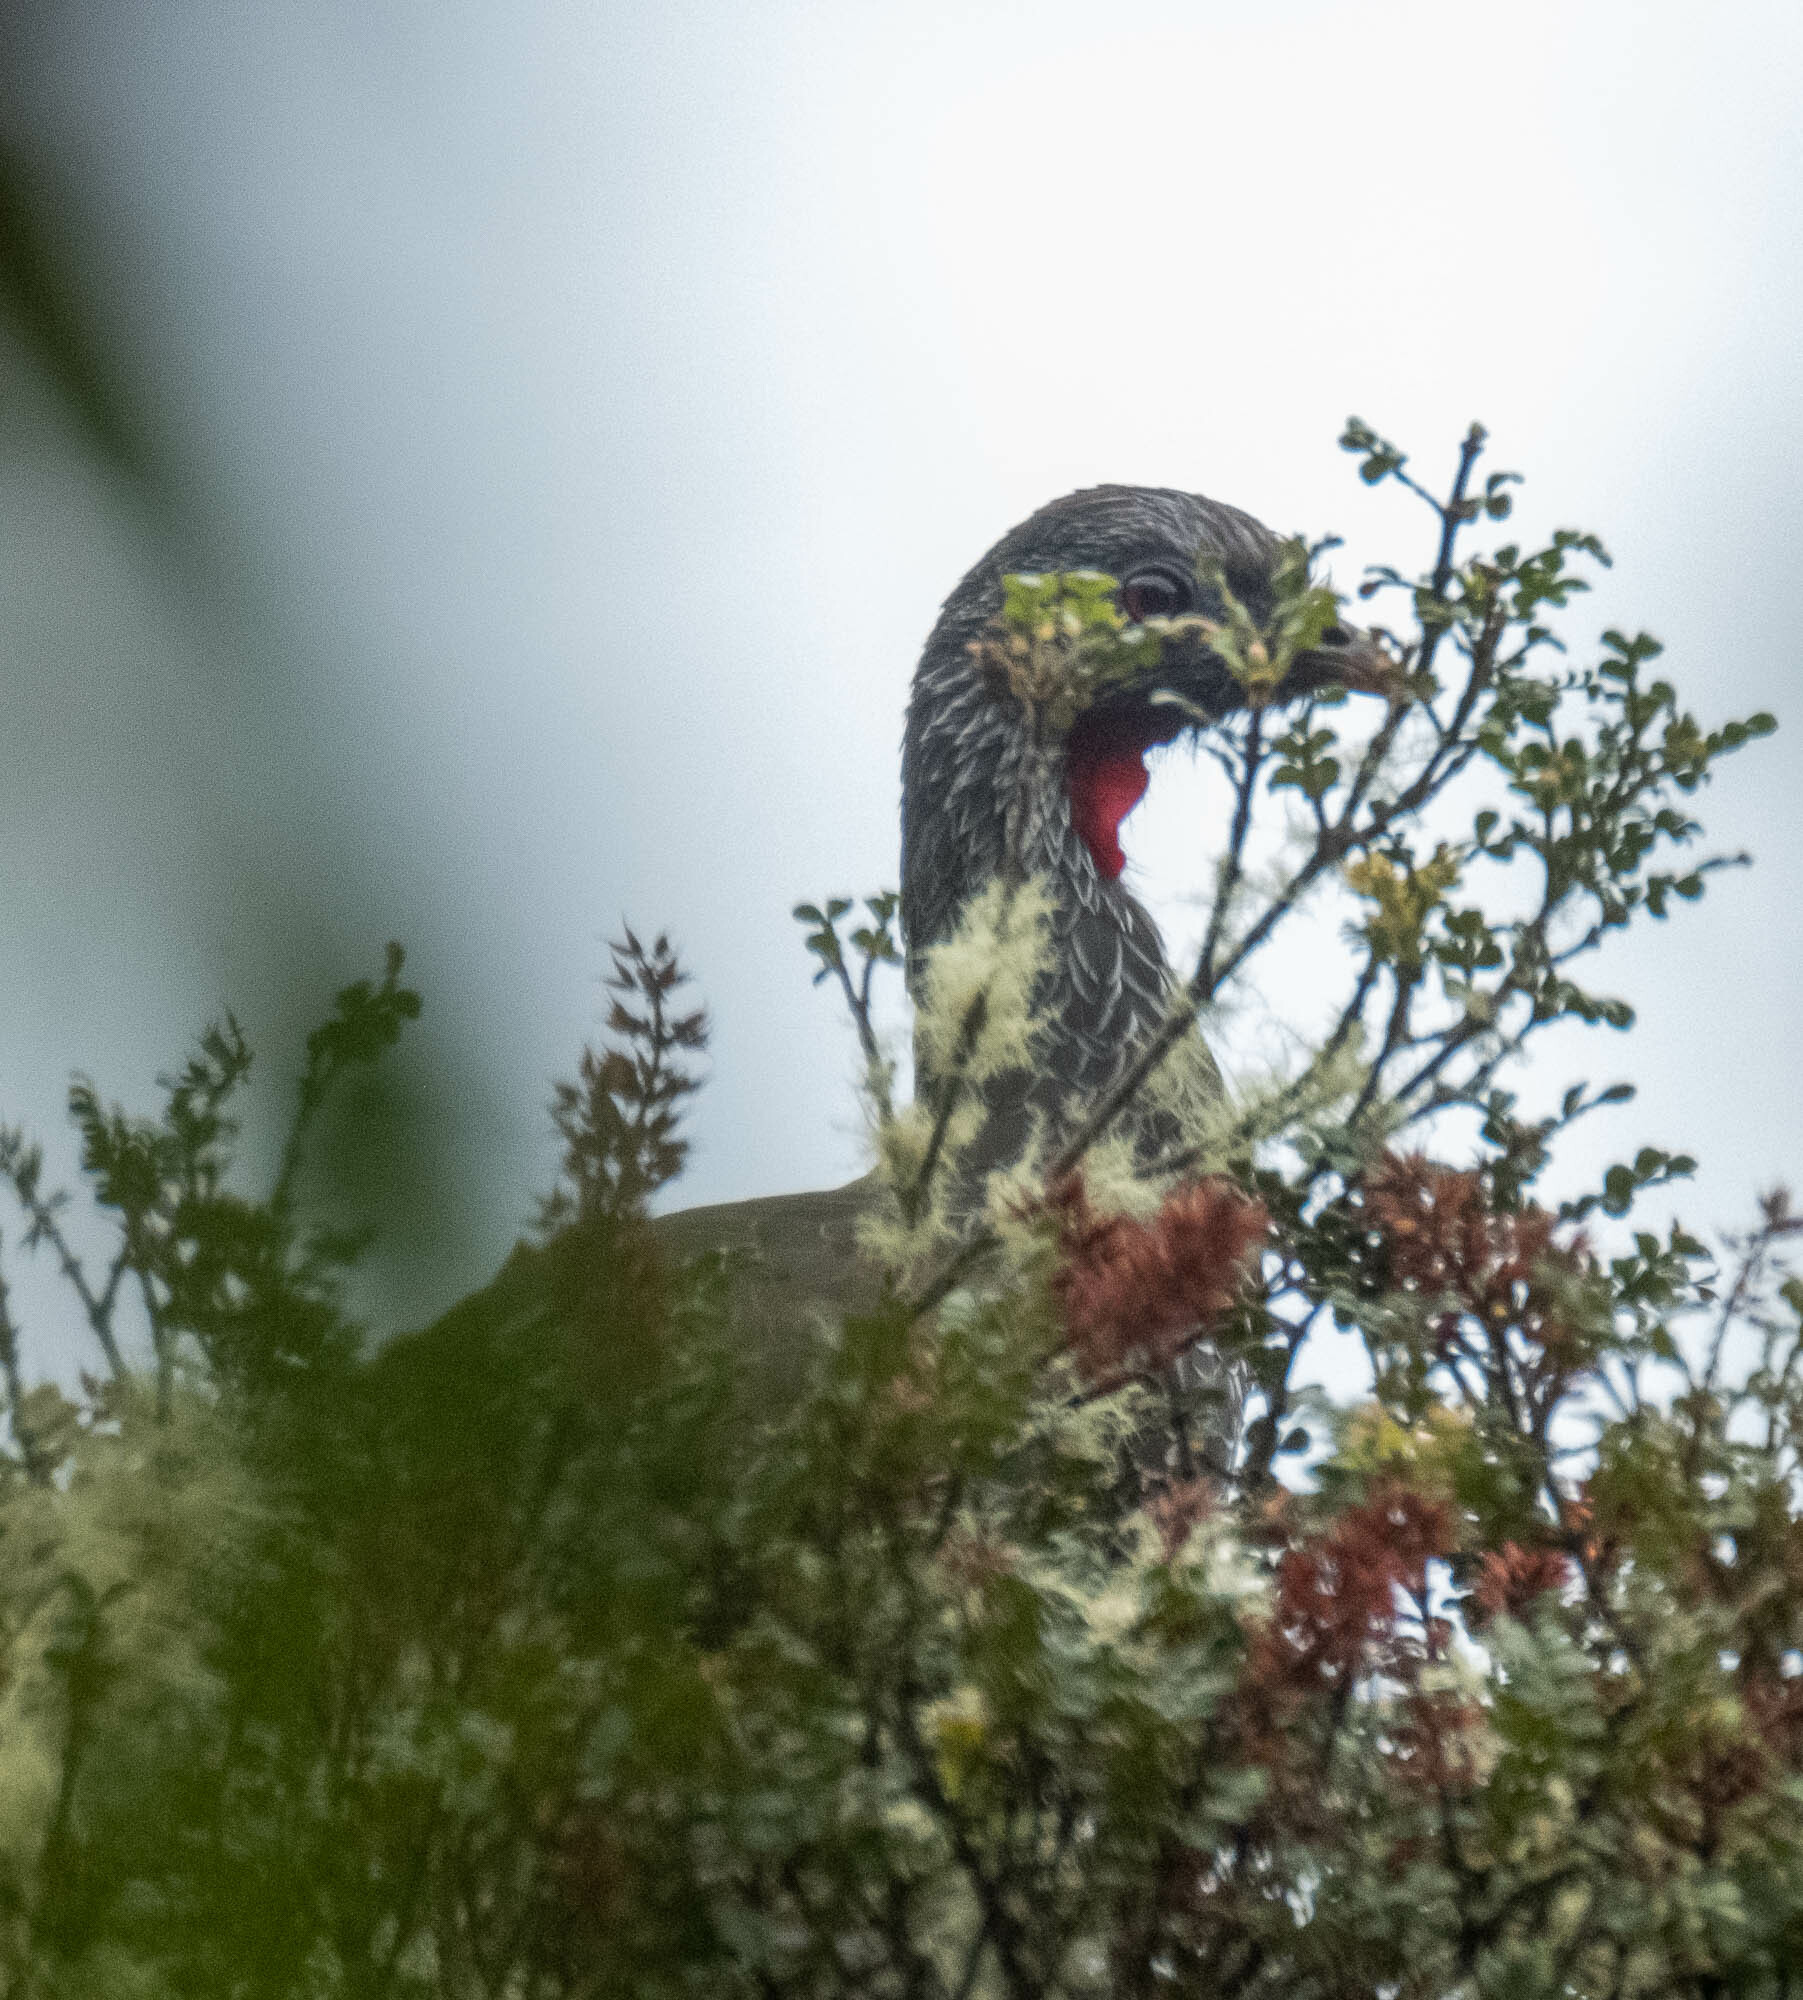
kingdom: Animalia
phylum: Chordata
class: Aves
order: Galliformes
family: Cracidae
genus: Penelope
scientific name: Penelope montagnii
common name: Andean guan
